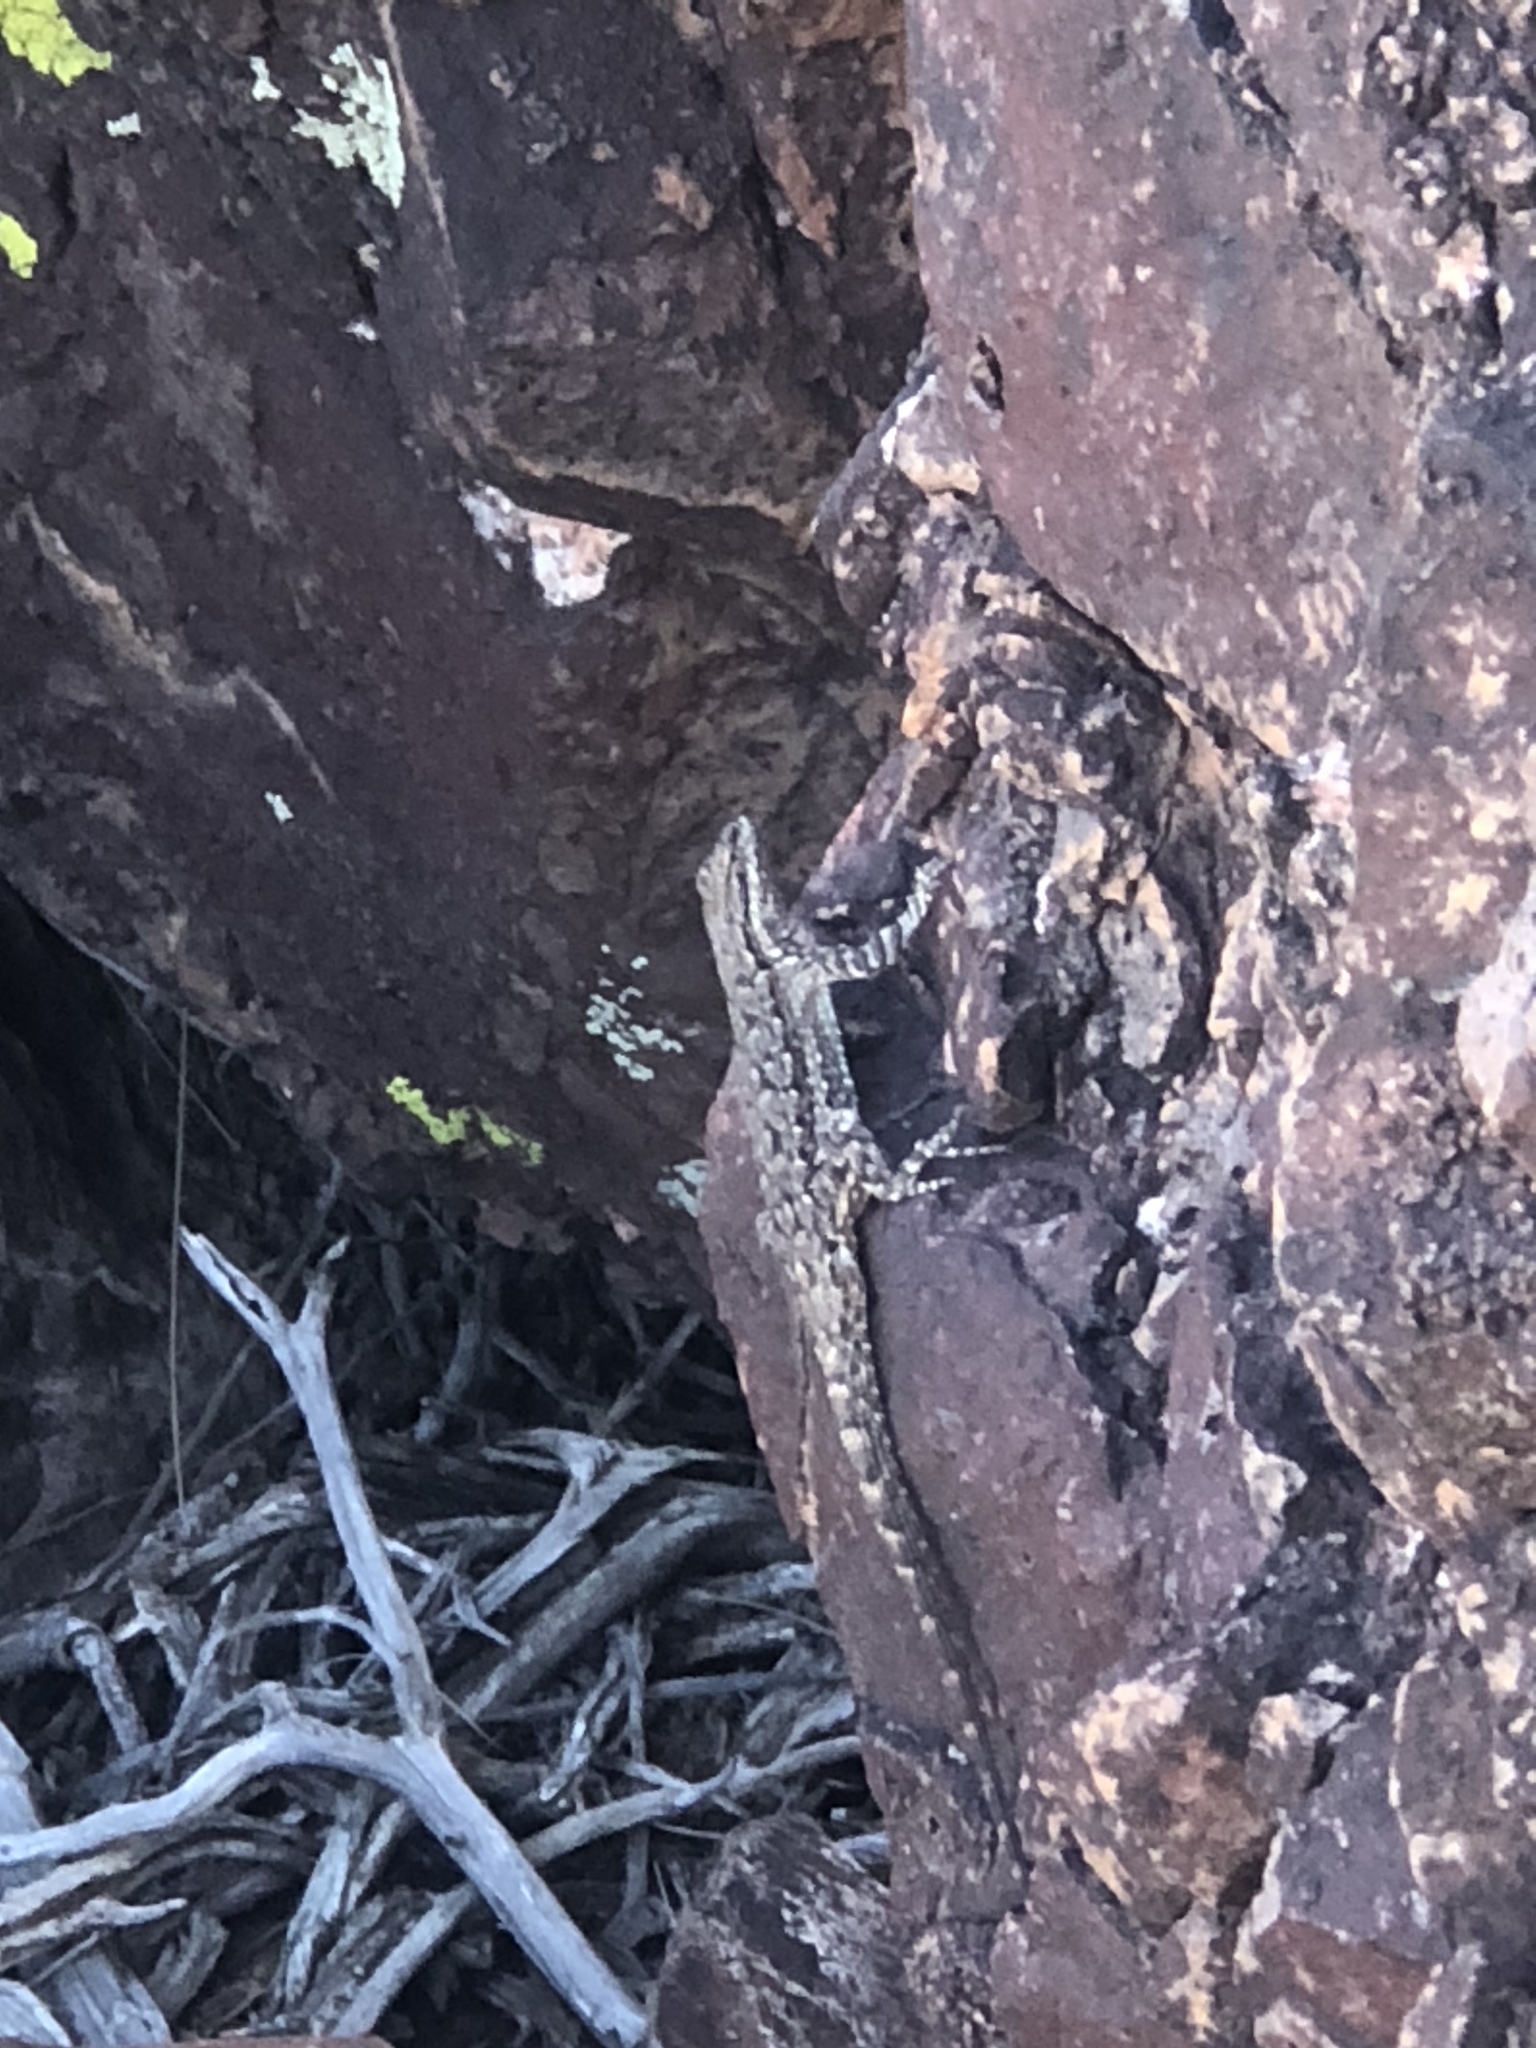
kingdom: Animalia
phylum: Chordata
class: Squamata
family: Phrynosomatidae
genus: Urosaurus
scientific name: Urosaurus ornatus
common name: Ornate tree lizard
